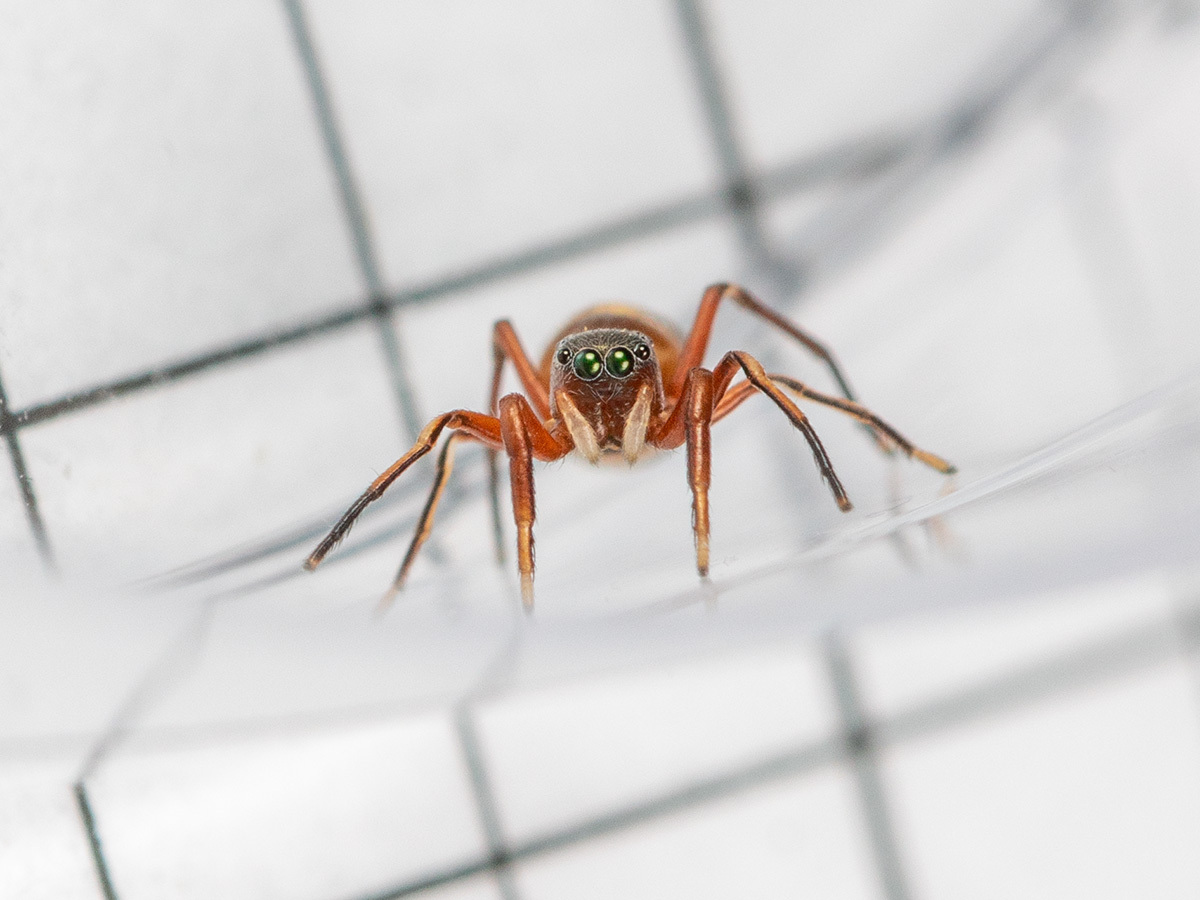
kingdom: Animalia
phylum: Arthropoda
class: Arachnida
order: Araneae
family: Salticidae
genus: Synageles
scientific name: Synageles subcingulatus
